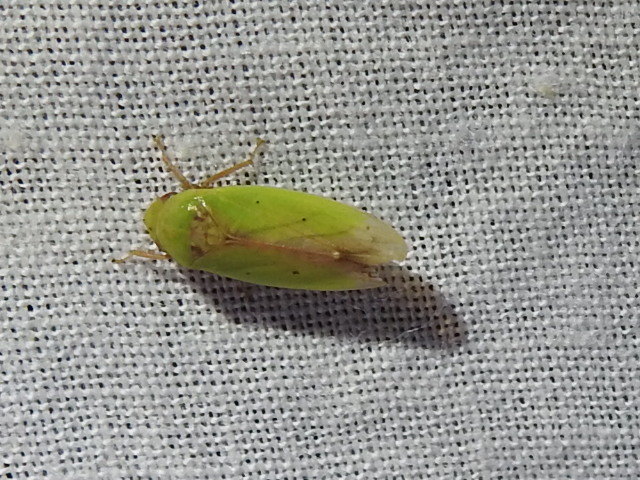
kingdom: Animalia
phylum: Arthropoda
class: Insecta
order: Hemiptera
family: Cicadellidae
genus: Ponana
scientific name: Ponana
